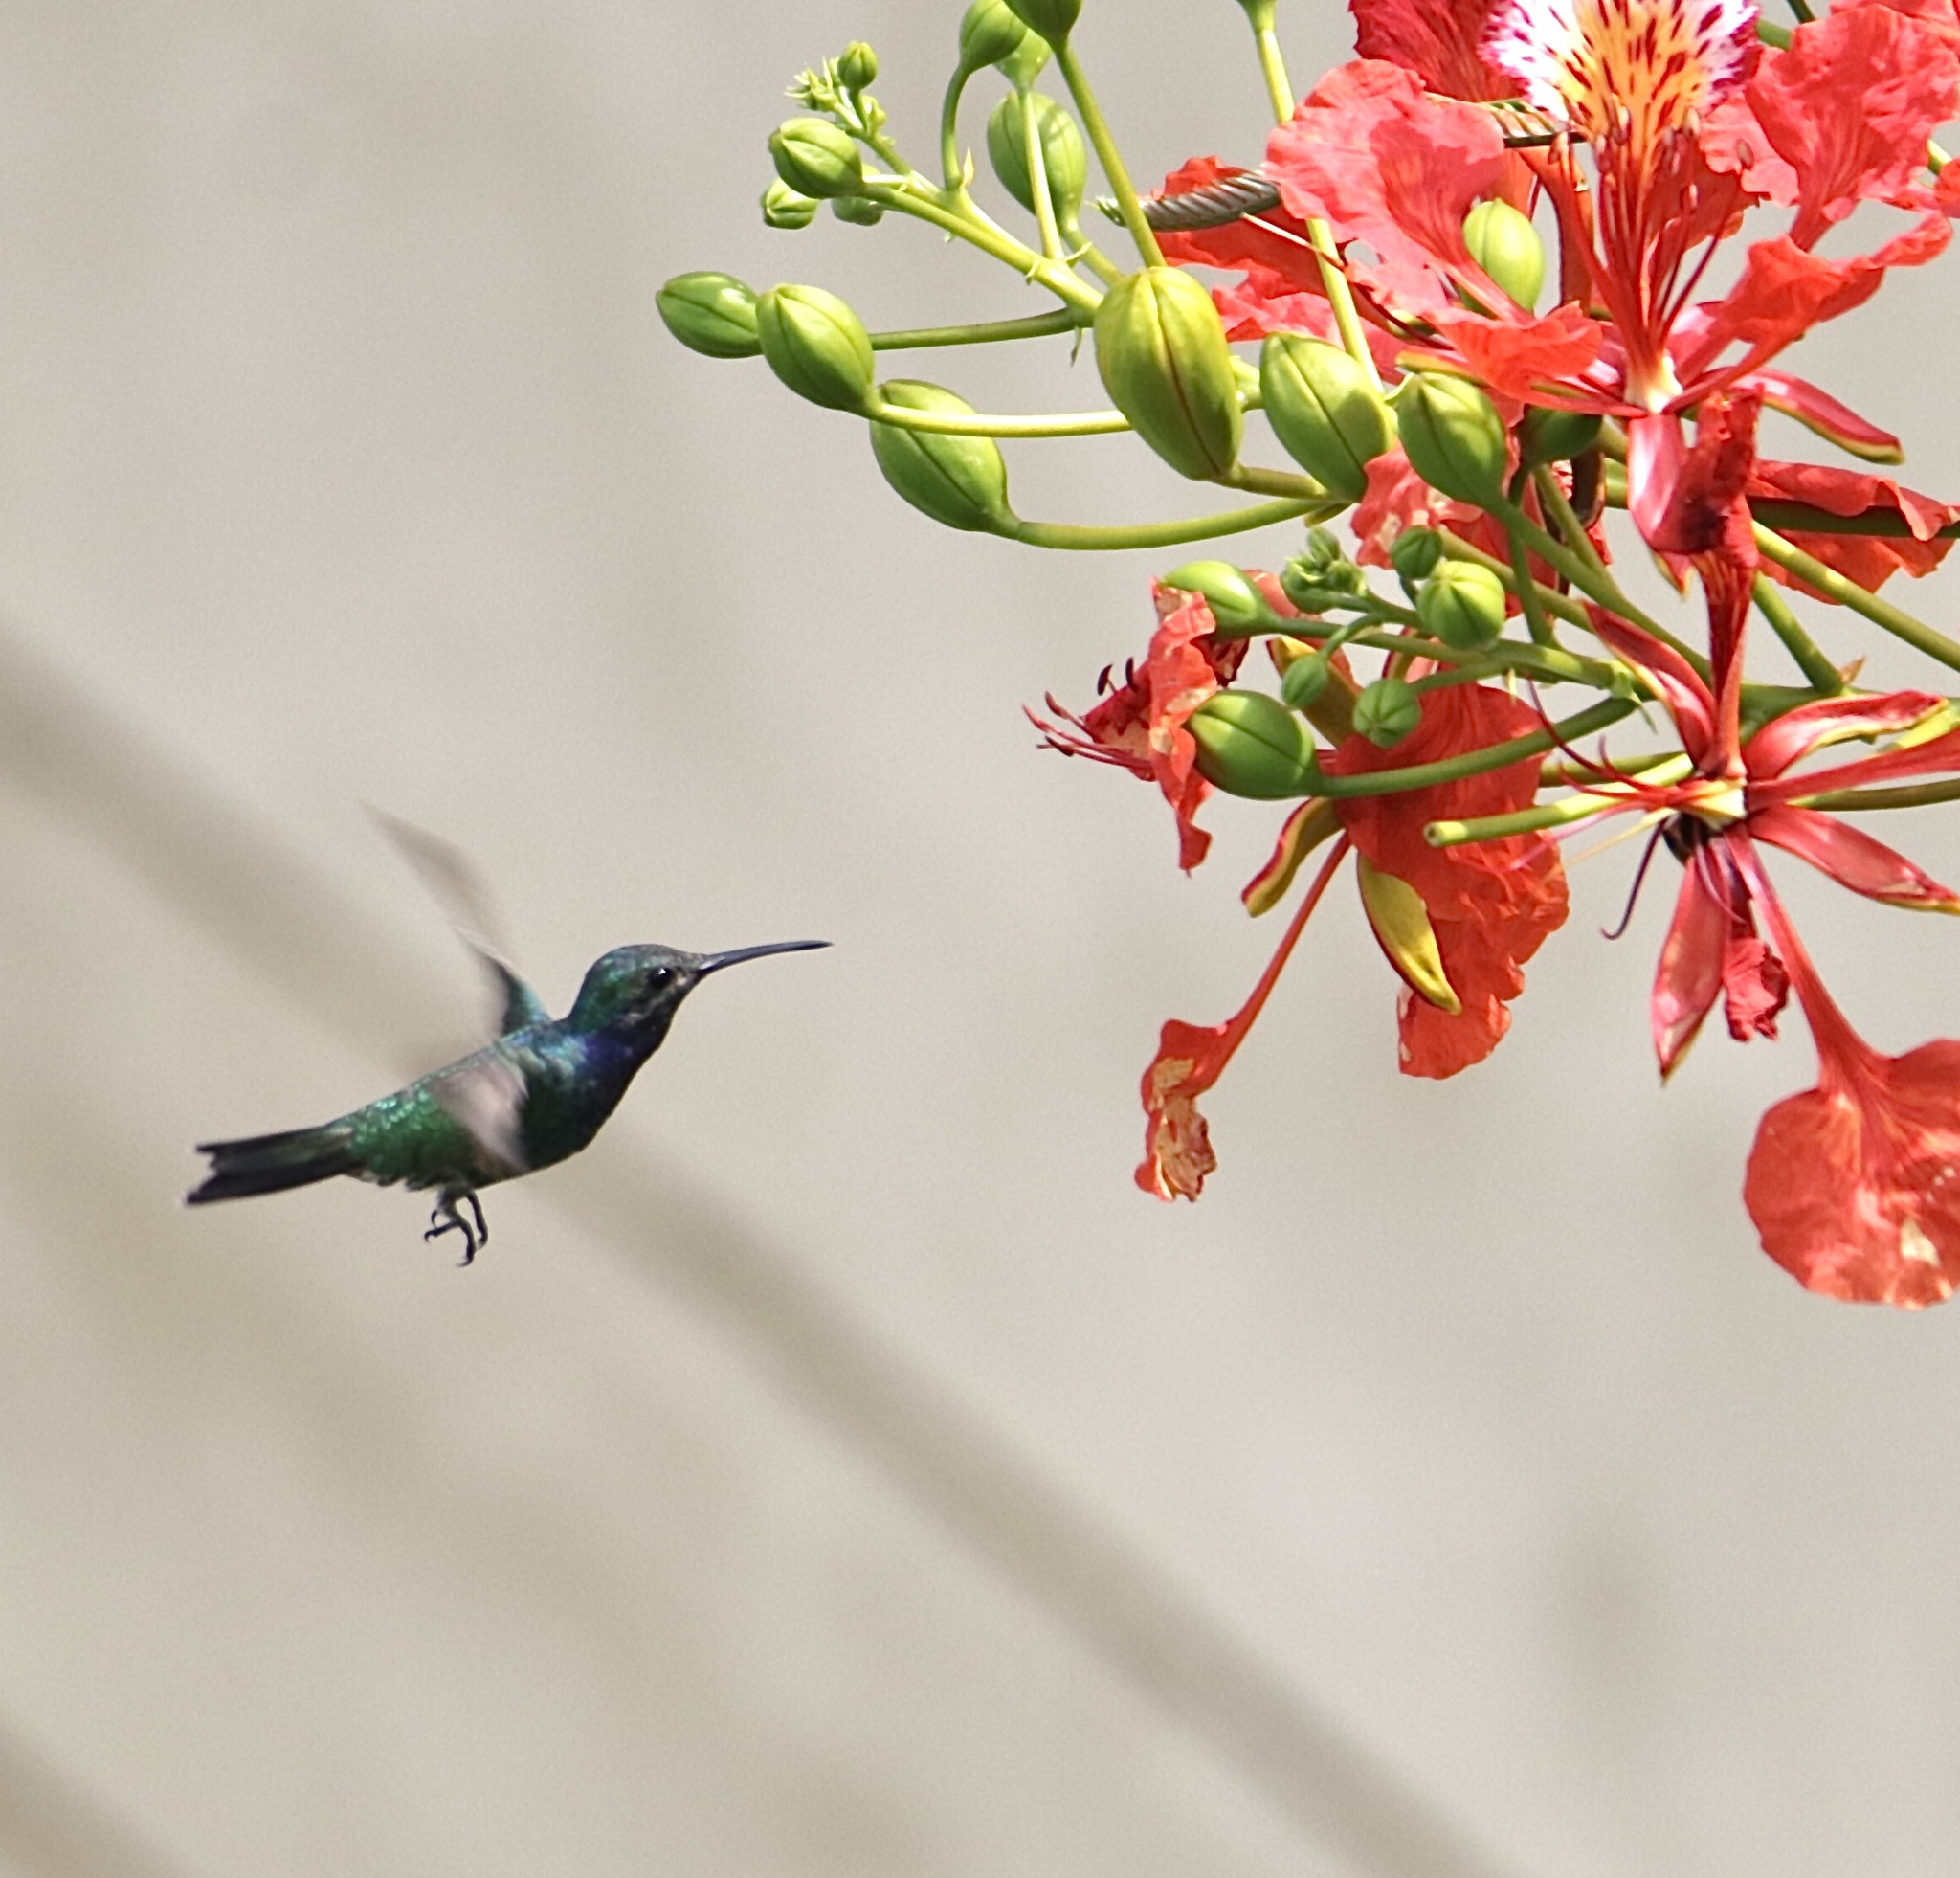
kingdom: Animalia
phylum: Chordata
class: Aves
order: Apodiformes
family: Trochilidae
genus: Chrysuronia
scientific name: Chrysuronia coeruleogularis
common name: Sapphire-throated hummingbird
